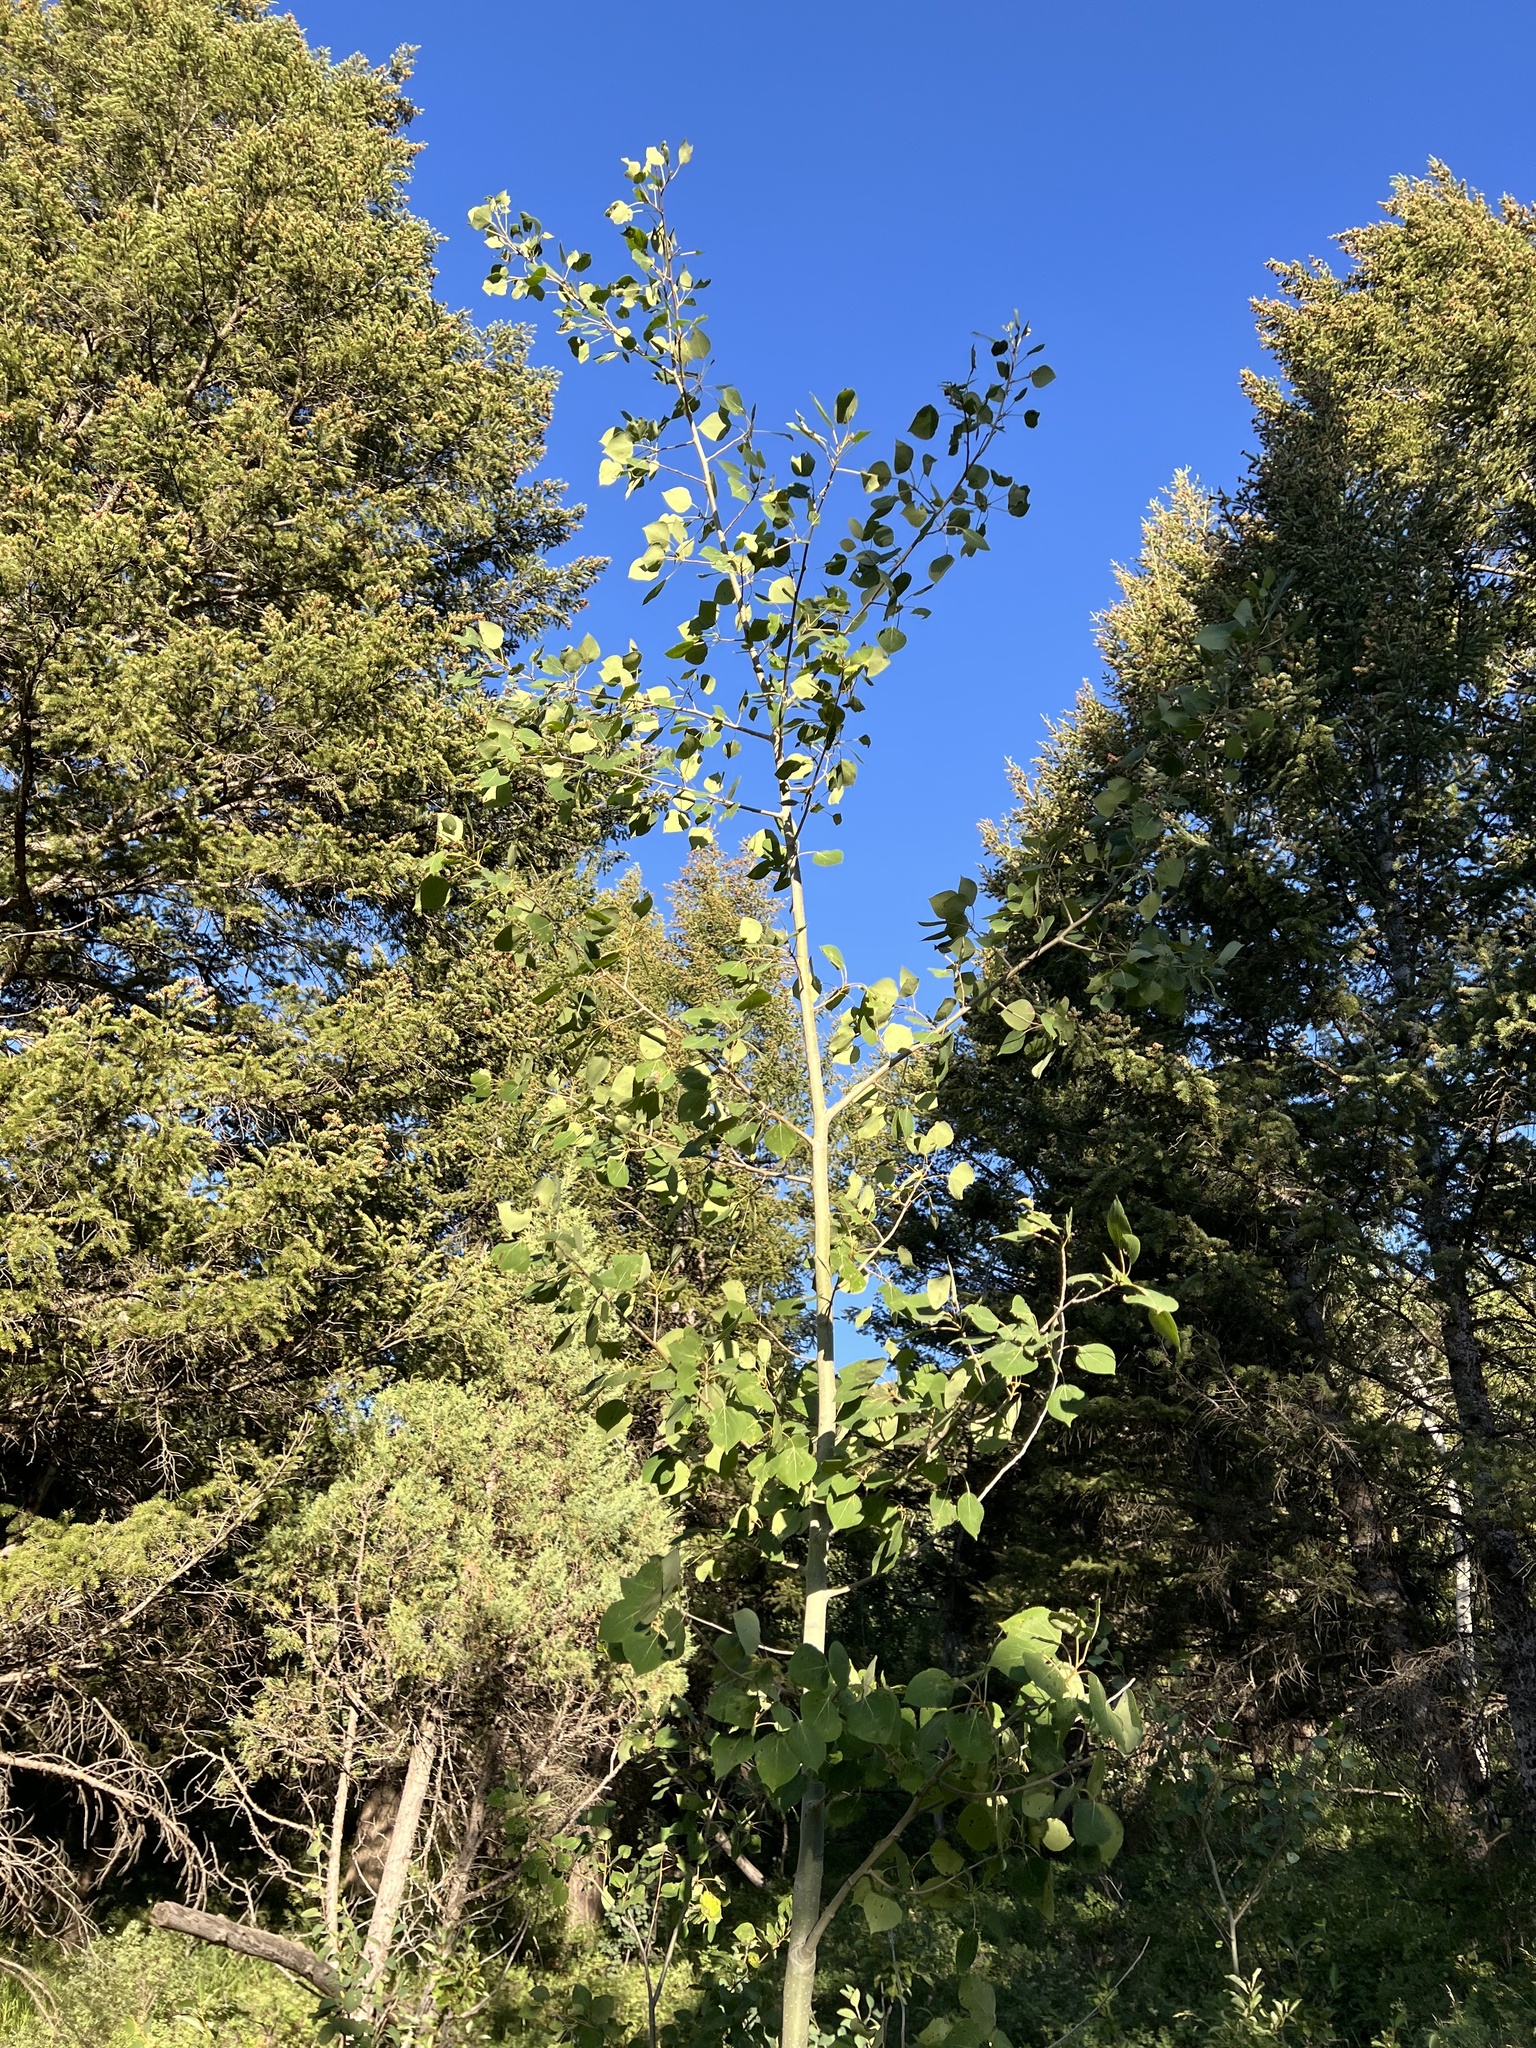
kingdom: Plantae
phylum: Tracheophyta
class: Magnoliopsida
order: Malpighiales
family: Salicaceae
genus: Populus
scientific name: Populus tremuloides
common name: Quaking aspen
